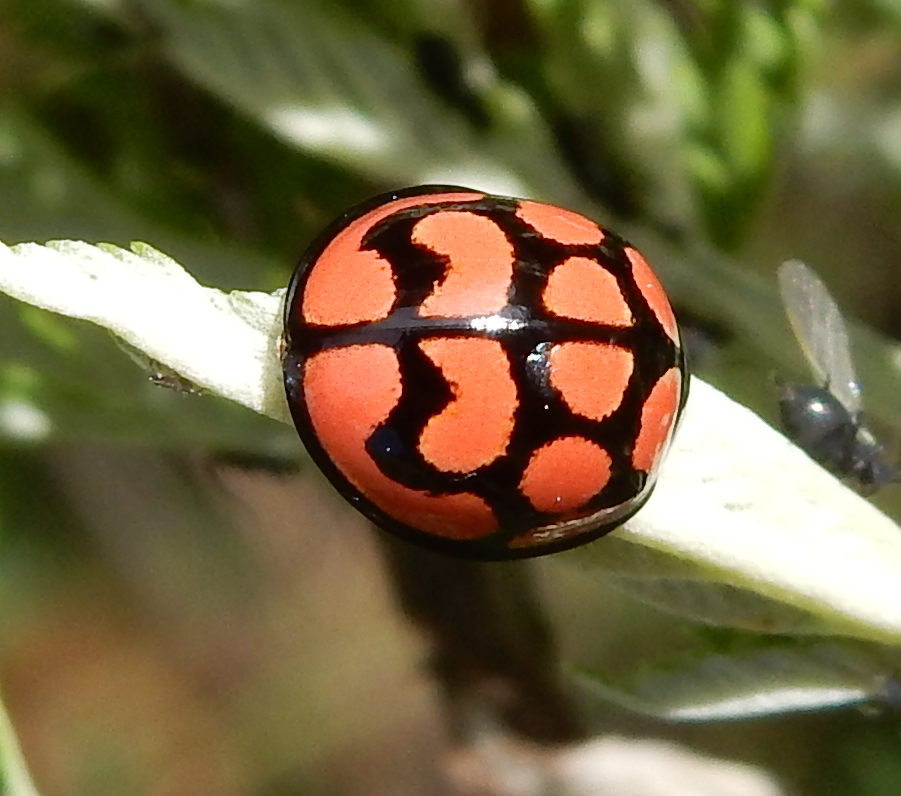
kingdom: Animalia
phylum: Arthropoda
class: Insecta
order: Coleoptera
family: Coccinellidae
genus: Cheilomenes
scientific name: Cheilomenes lunata
